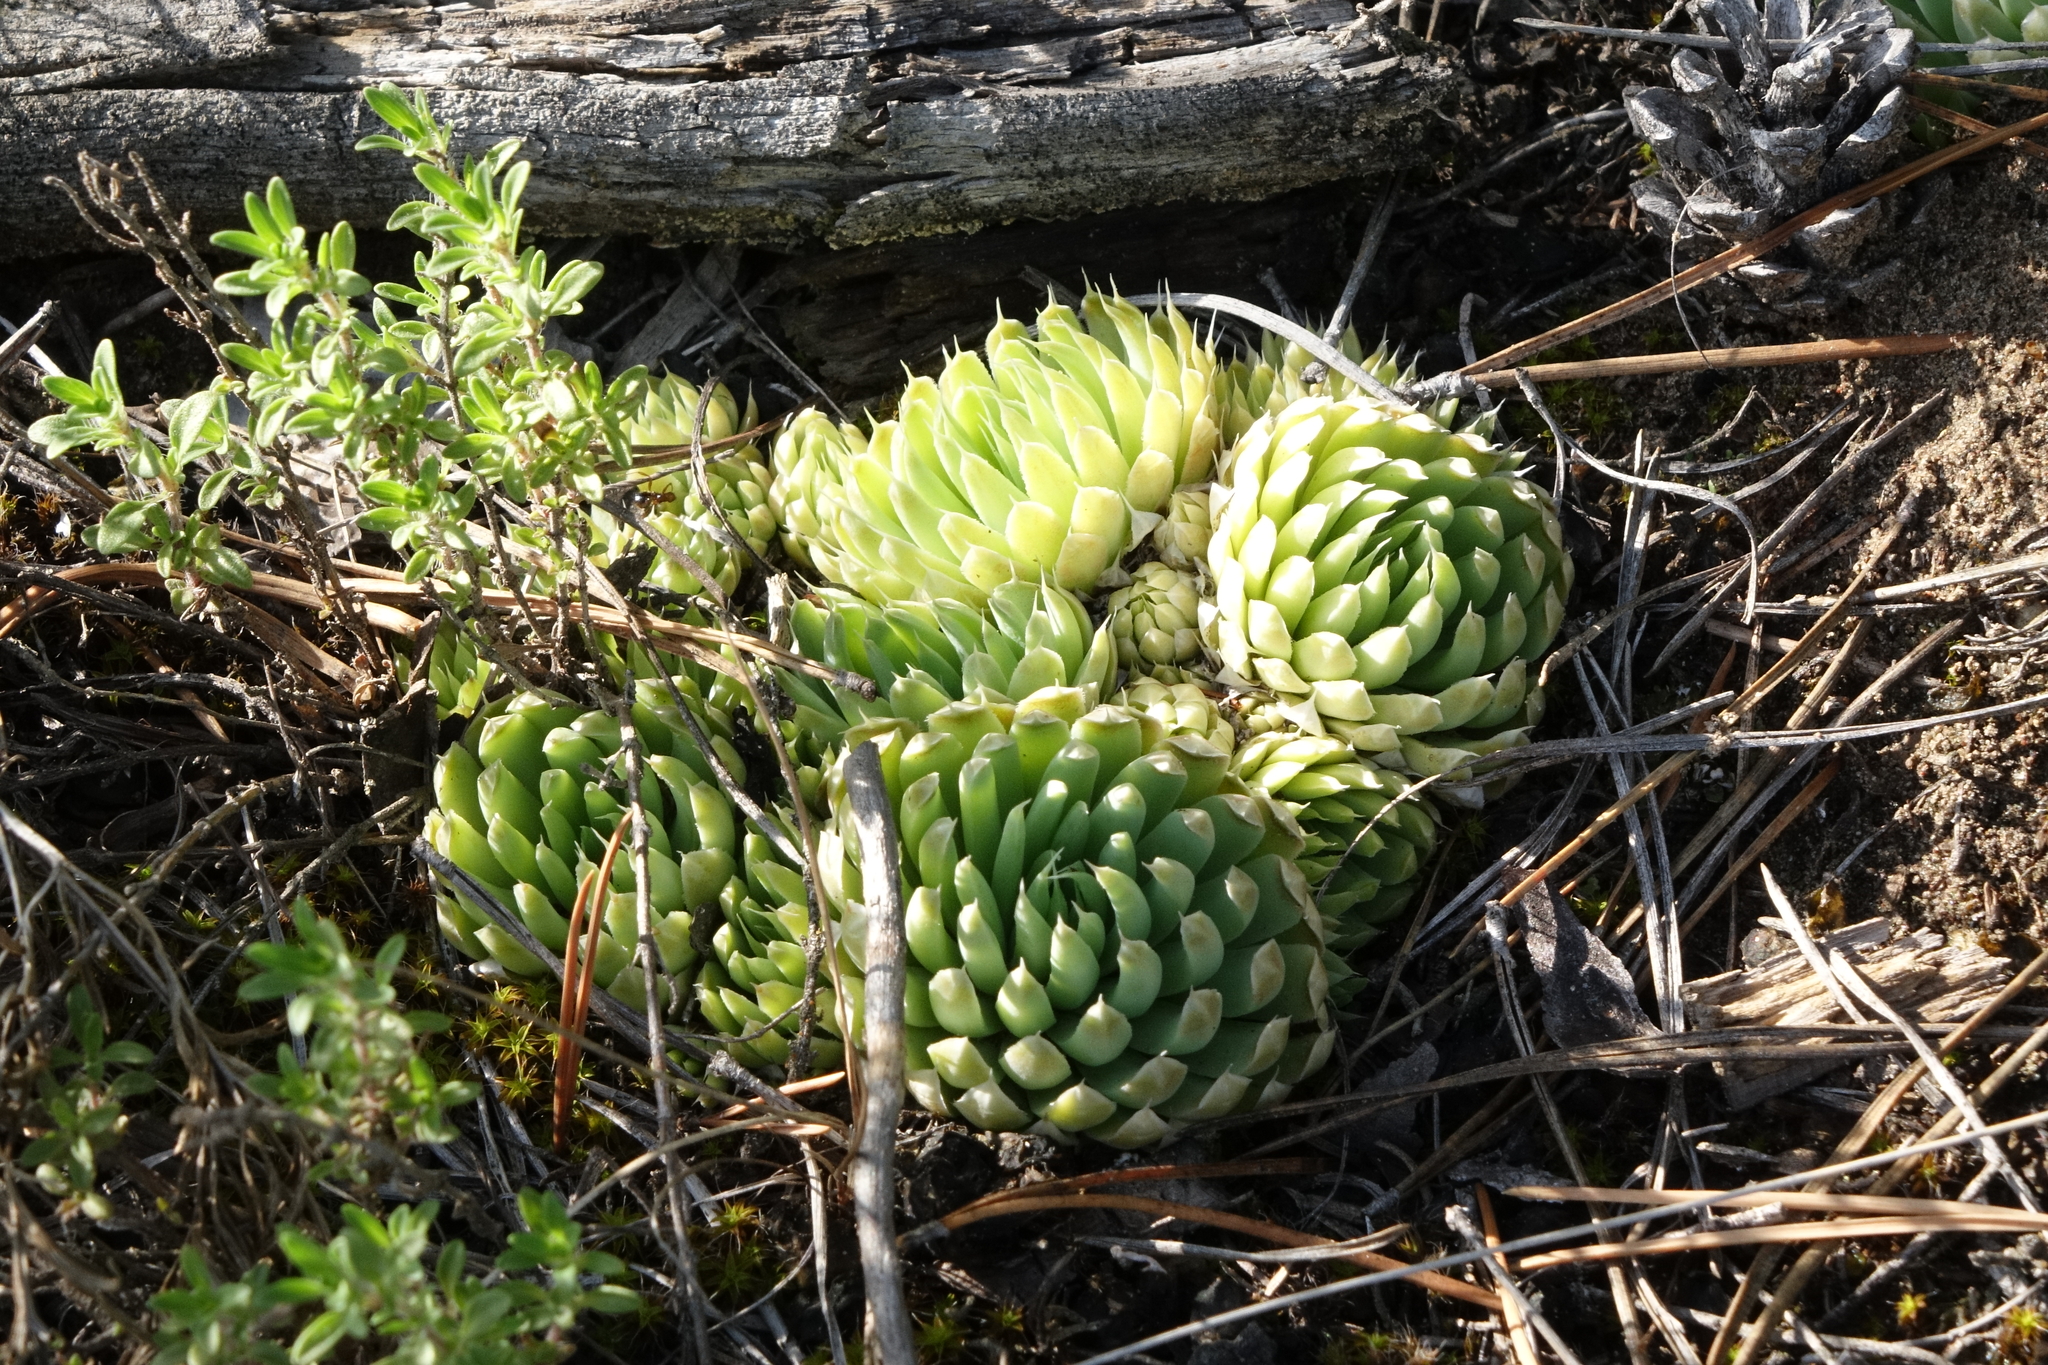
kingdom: Plantae
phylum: Tracheophyta
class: Magnoliopsida
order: Saxifragales
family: Crassulaceae
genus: Orostachys
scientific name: Orostachys spinosa
